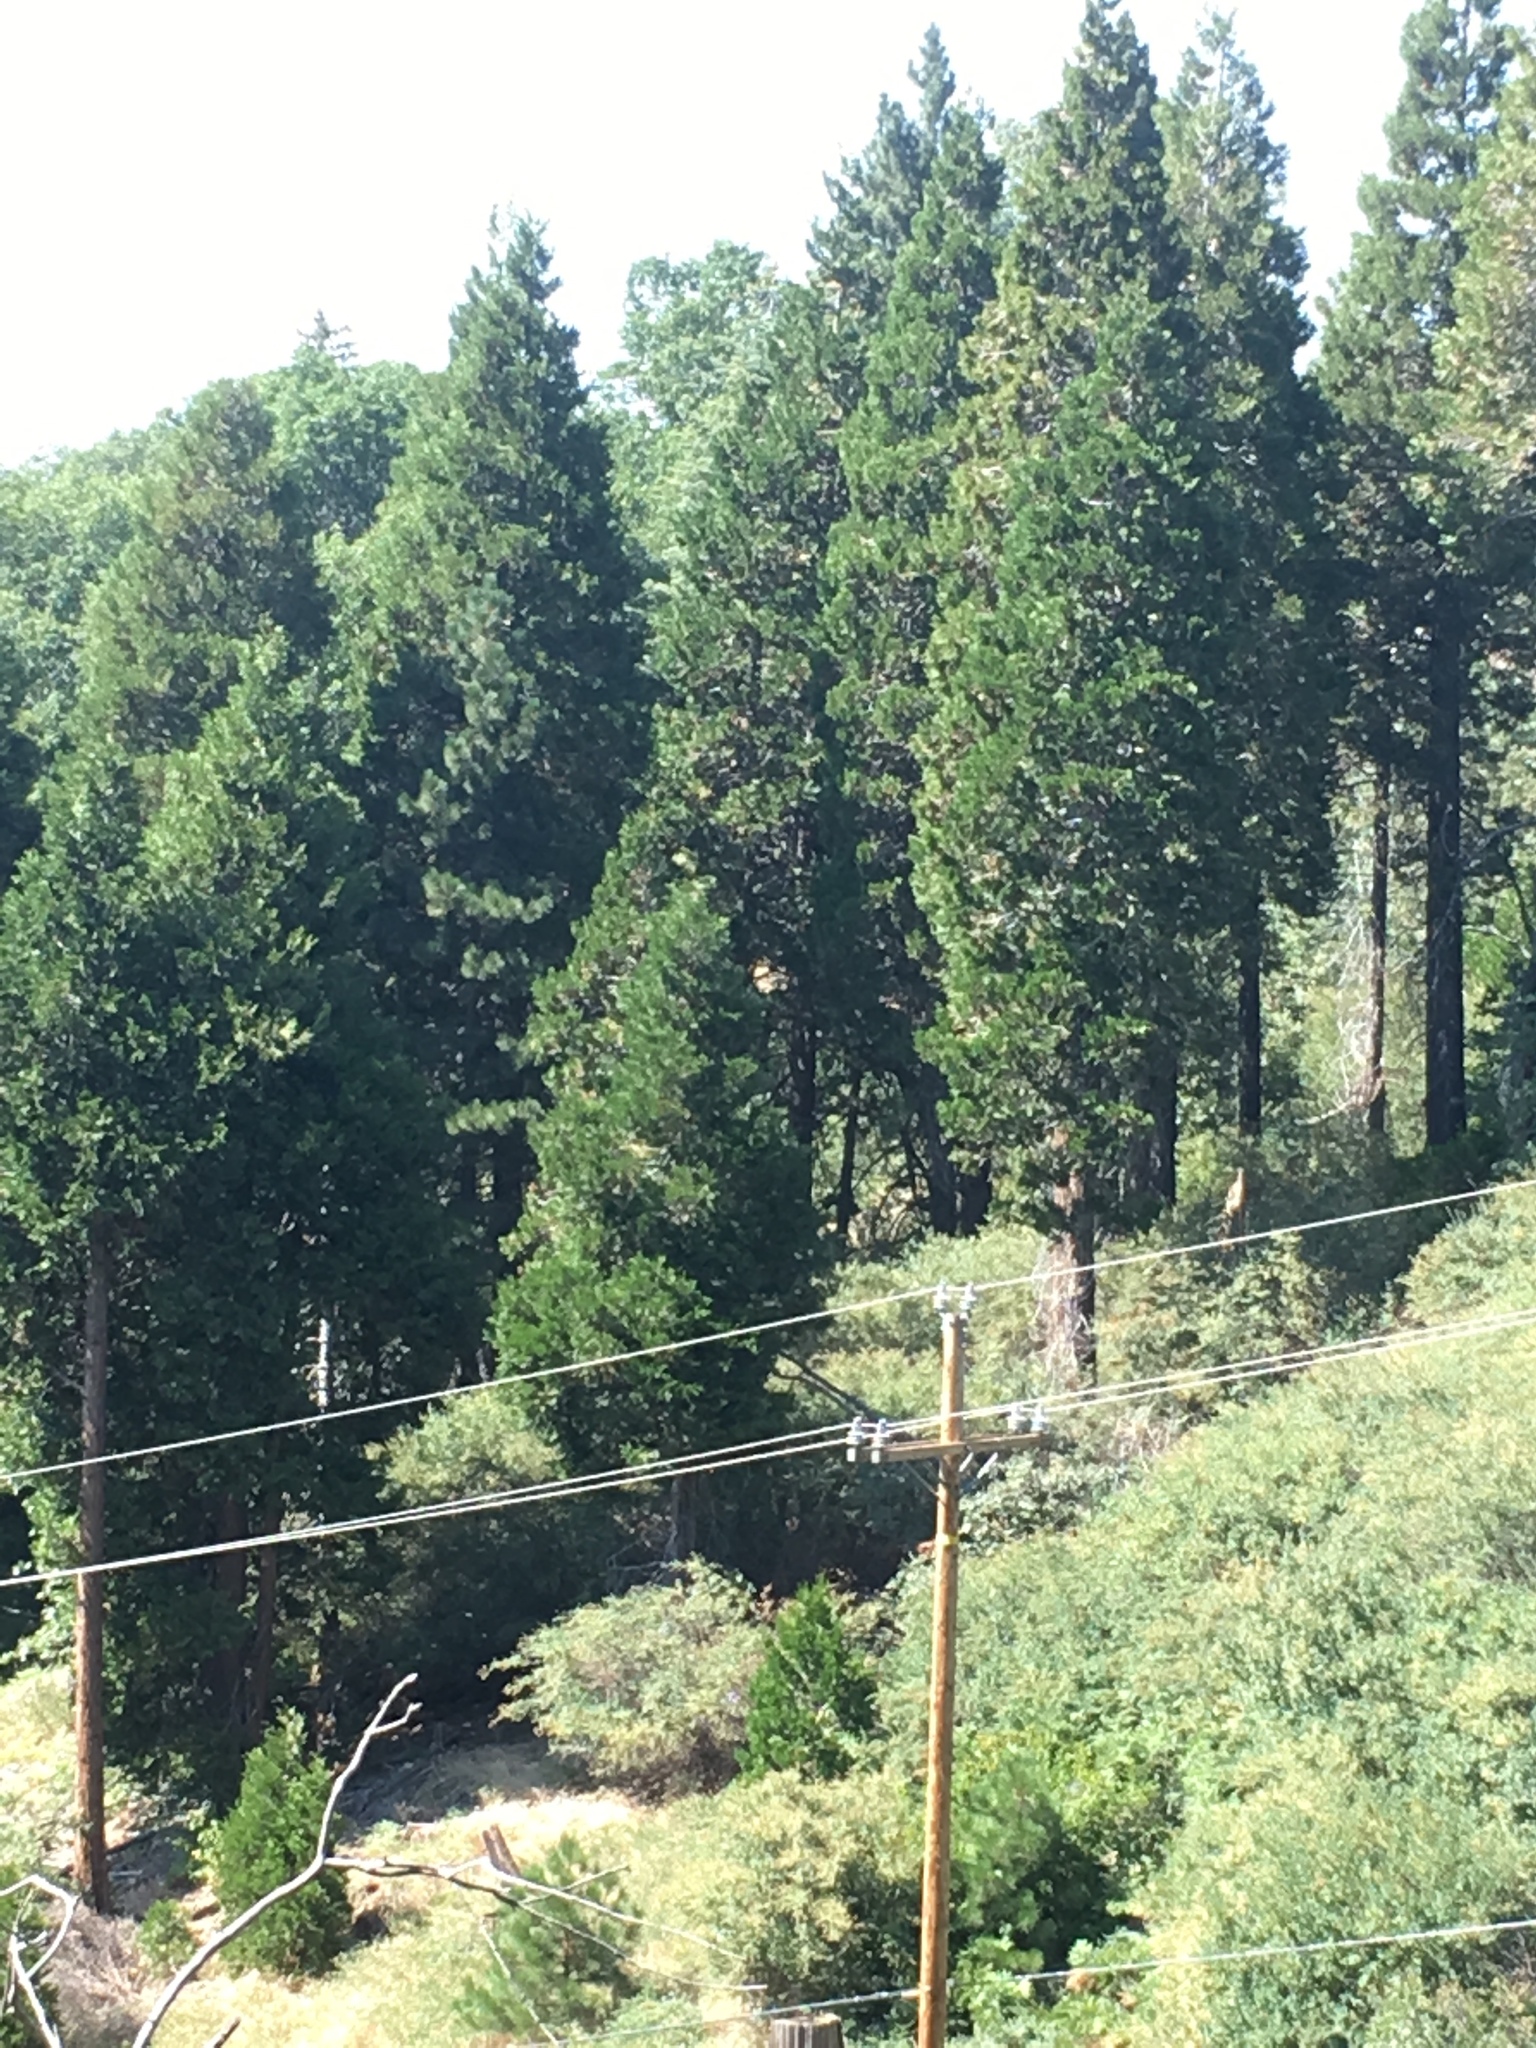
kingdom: Plantae
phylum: Tracheophyta
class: Pinopsida
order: Pinales
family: Cupressaceae
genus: Calocedrus
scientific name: Calocedrus decurrens
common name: Californian incense-cedar
